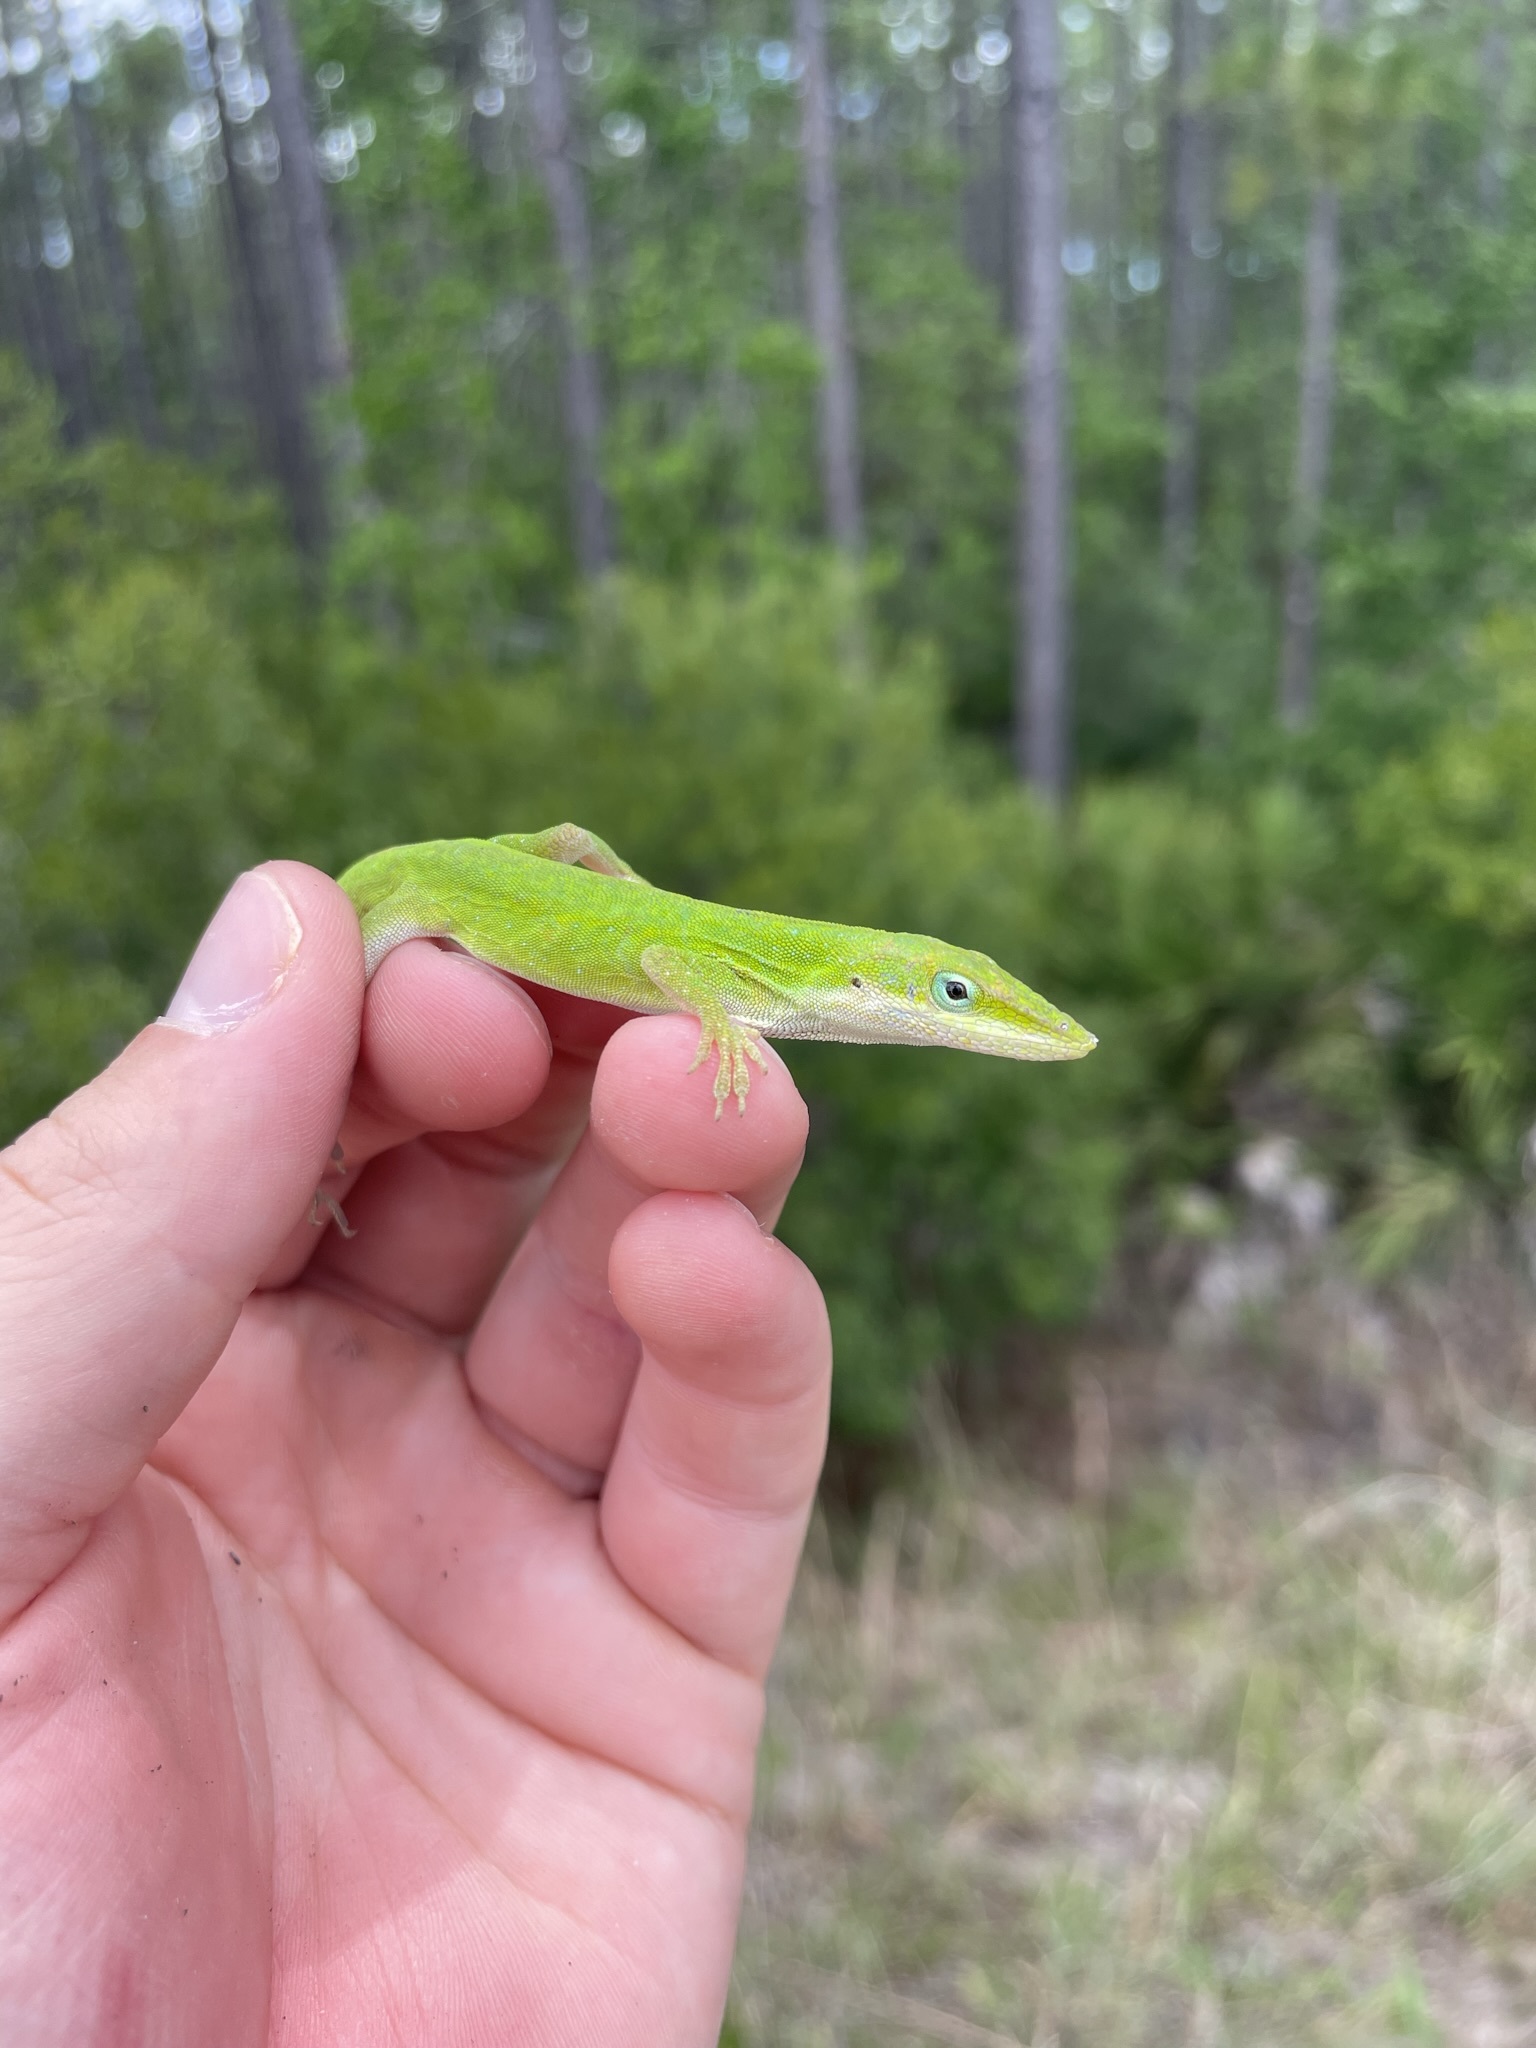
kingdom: Animalia
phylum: Chordata
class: Squamata
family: Dactyloidae
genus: Anolis
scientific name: Anolis carolinensis
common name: Green anole
